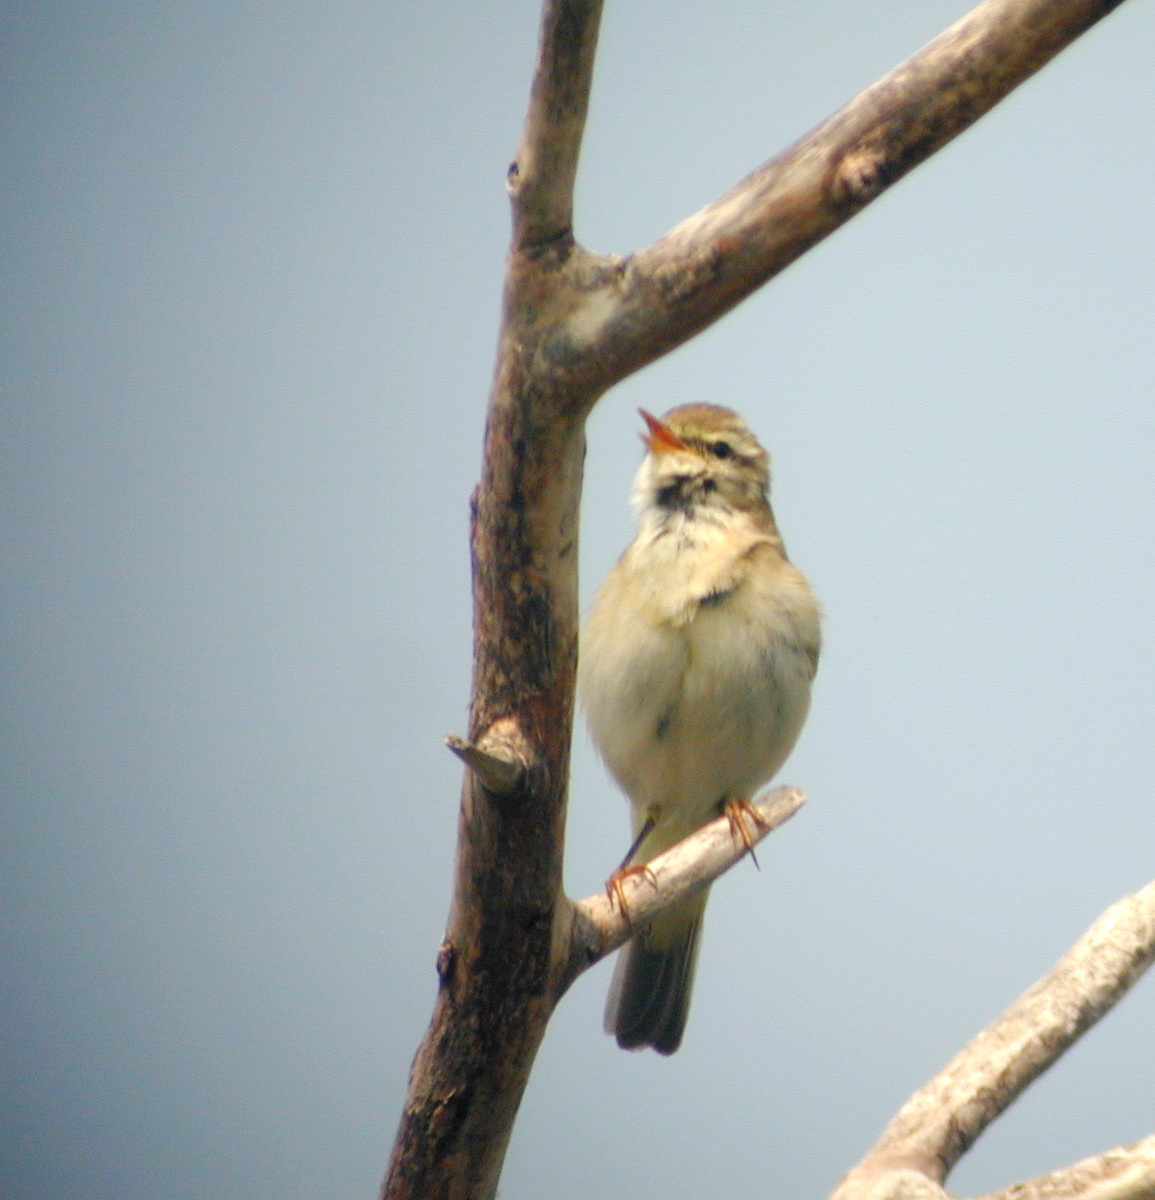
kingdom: Animalia
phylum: Chordata
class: Aves
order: Passeriformes
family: Phylloscopidae
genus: Phylloscopus
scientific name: Phylloscopus trochilus
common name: Willow warbler
